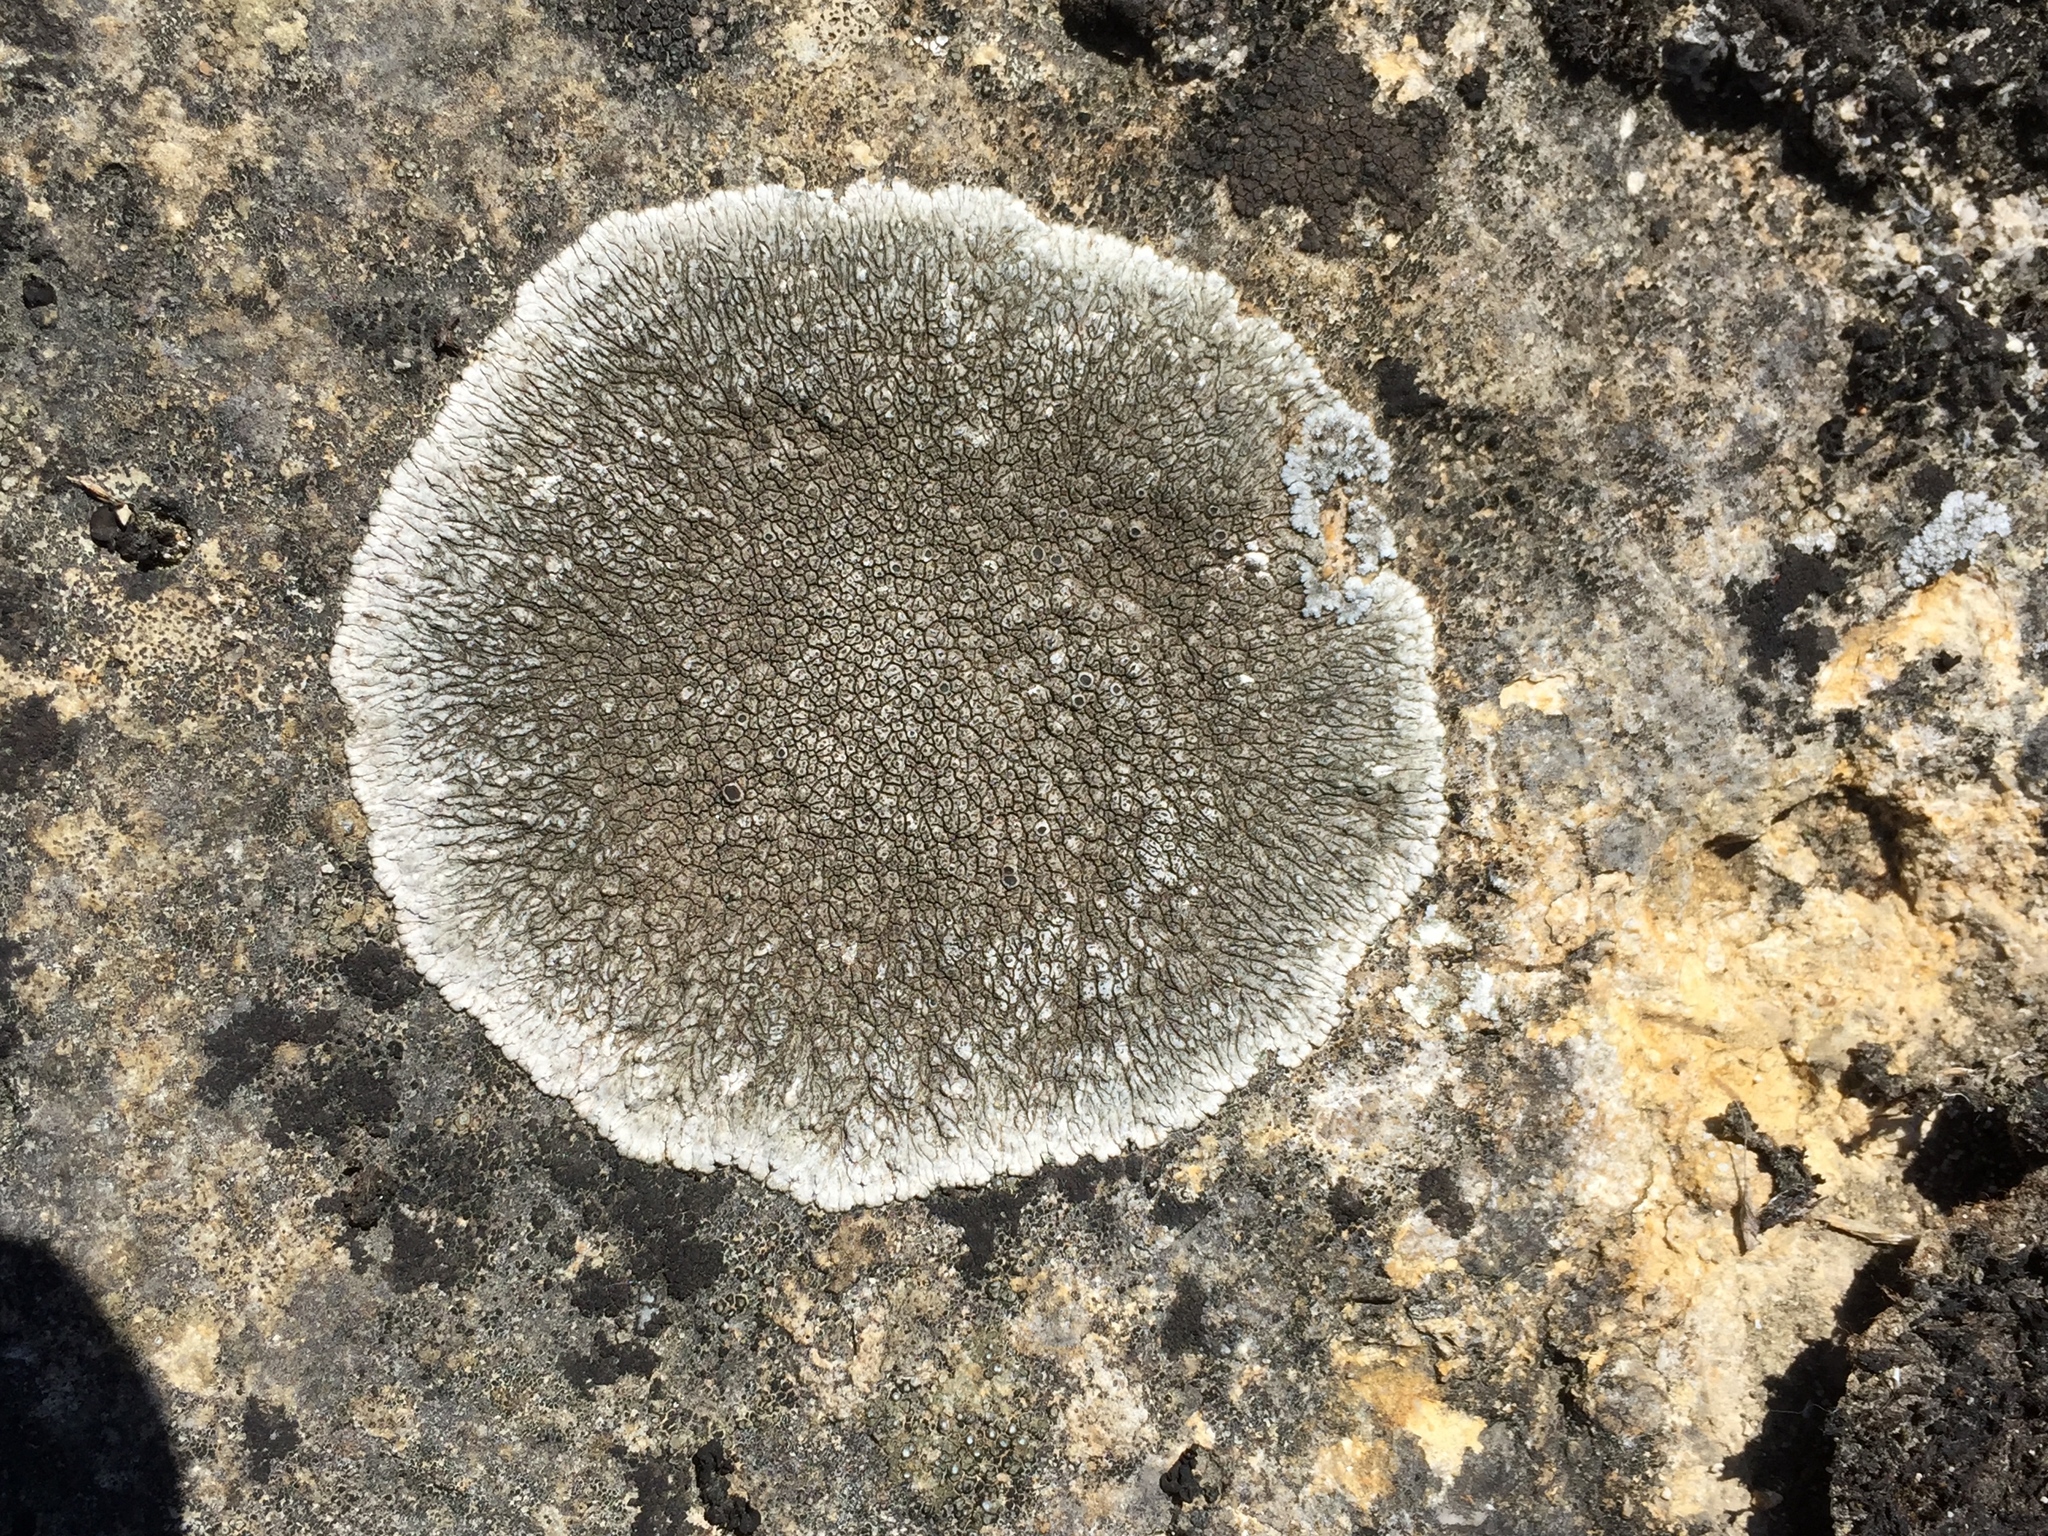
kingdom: Fungi
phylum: Ascomycota
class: Lecanoromycetes
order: Pertusariales
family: Megasporaceae
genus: Lobothallia
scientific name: Lobothallia radiosa
